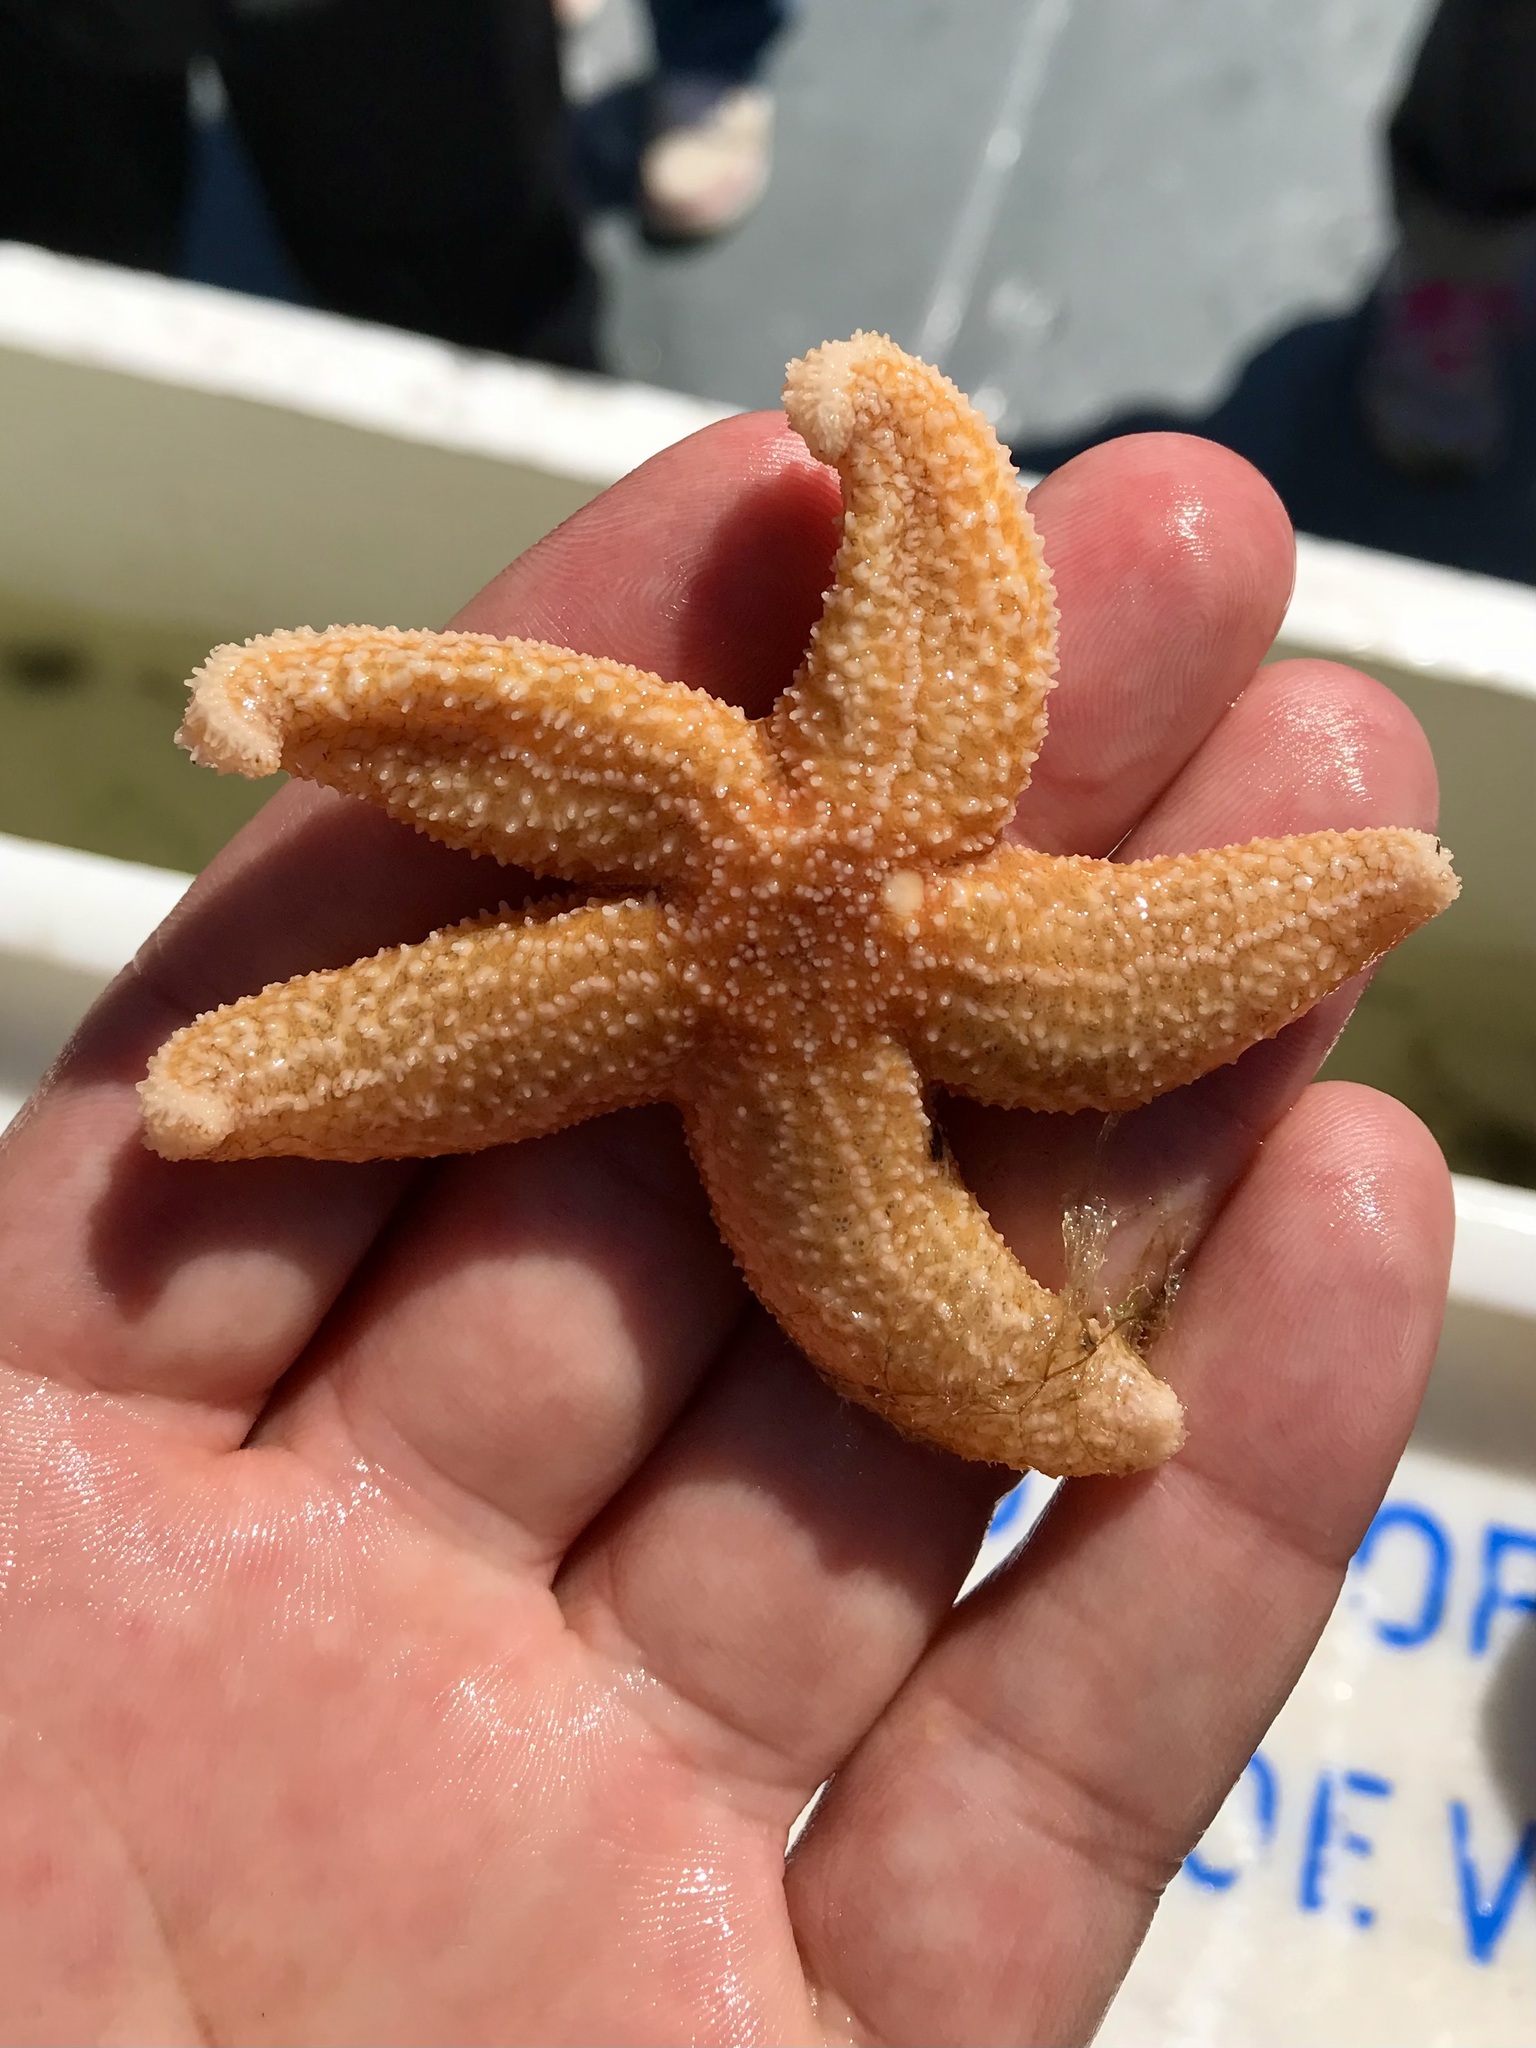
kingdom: Animalia
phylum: Echinodermata
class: Asteroidea
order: Forcipulatida
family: Asteriidae
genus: Asterias
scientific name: Asterias rubens
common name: Common starfish
